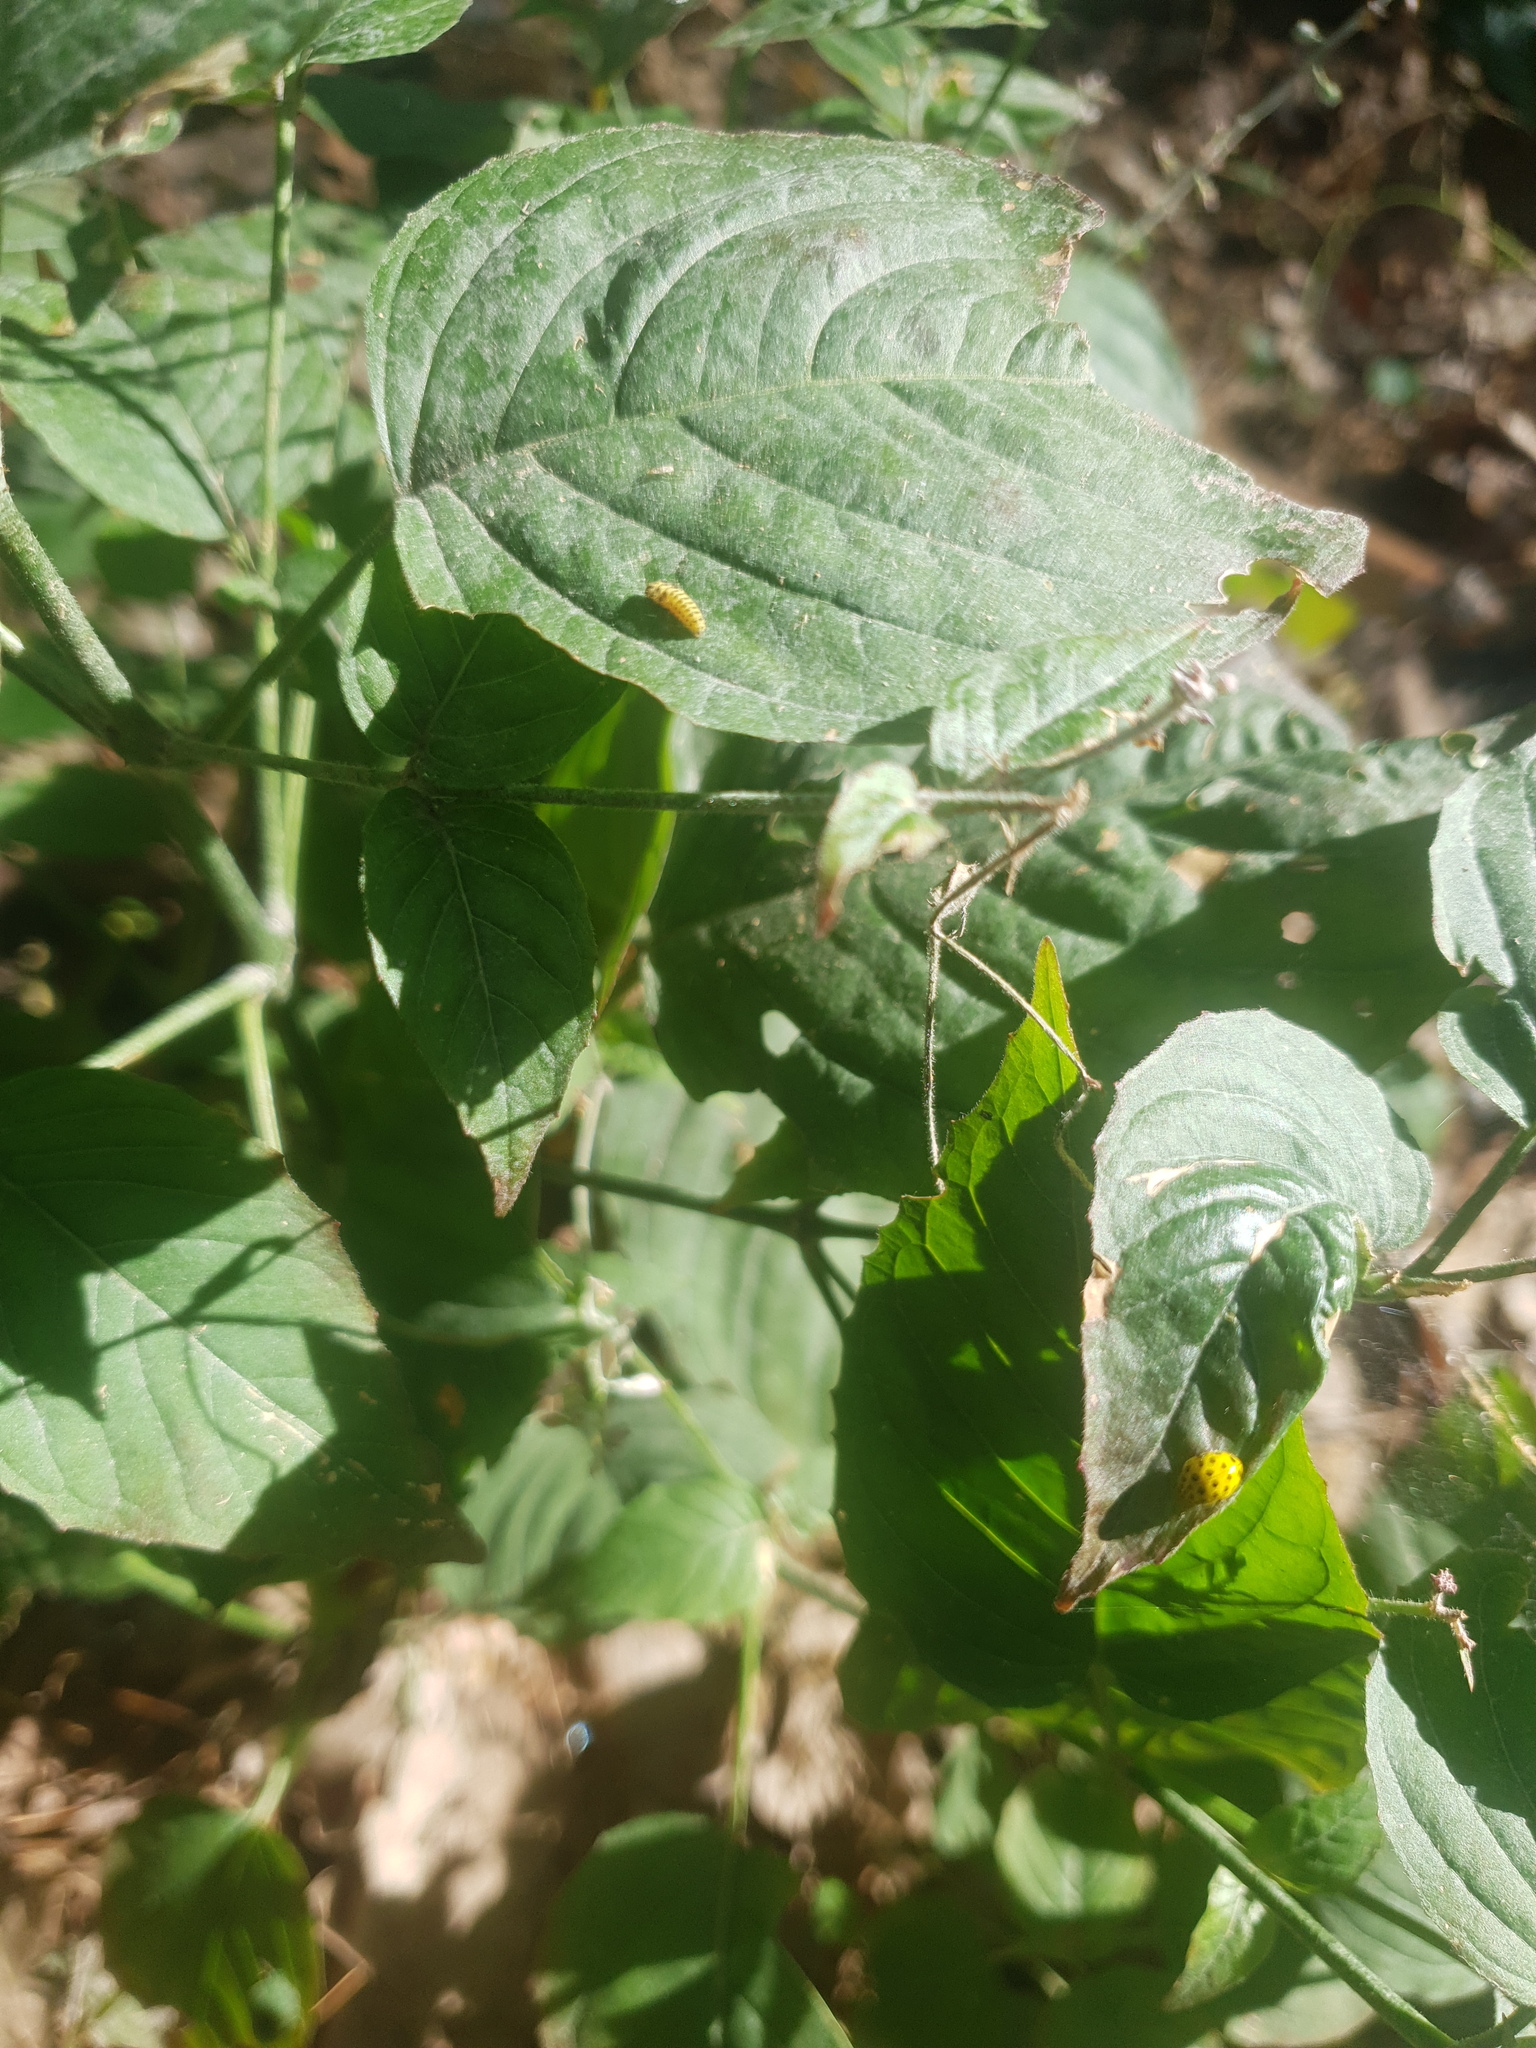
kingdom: Animalia
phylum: Arthropoda
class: Insecta
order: Coleoptera
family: Coccinellidae
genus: Psyllobora
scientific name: Psyllobora vigintiduopunctata
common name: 22-spot ladybird
